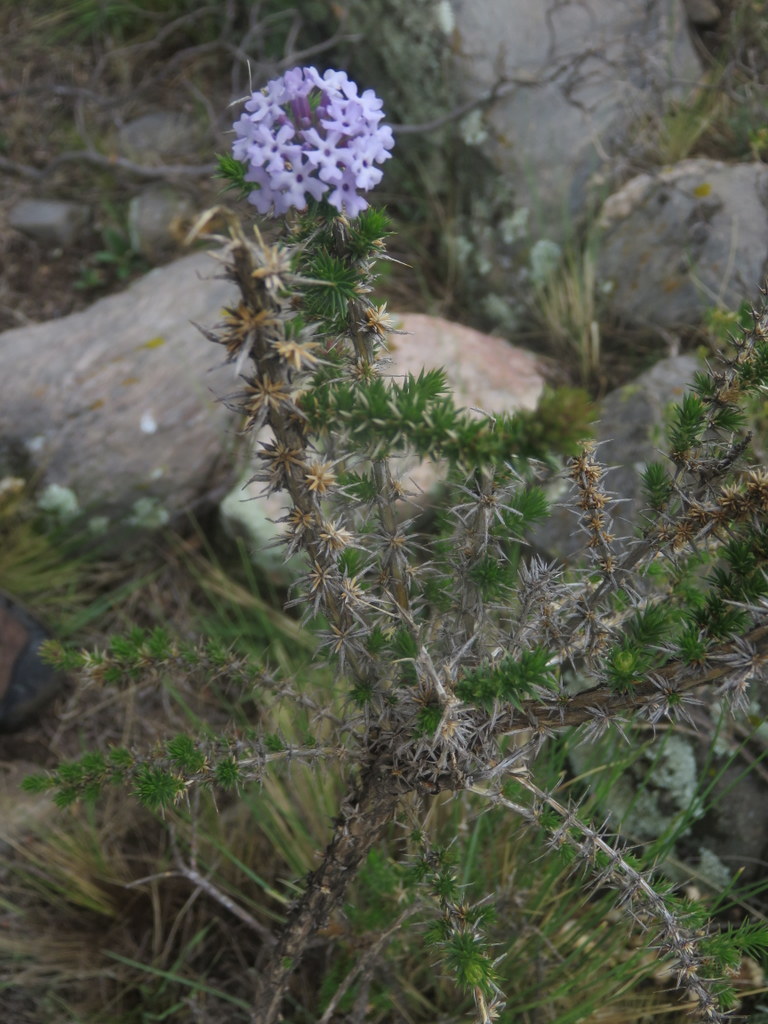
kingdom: Plantae
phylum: Tracheophyta
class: Magnoliopsida
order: Lamiales
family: Verbenaceae
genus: Junellia
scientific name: Junellia juniperina
